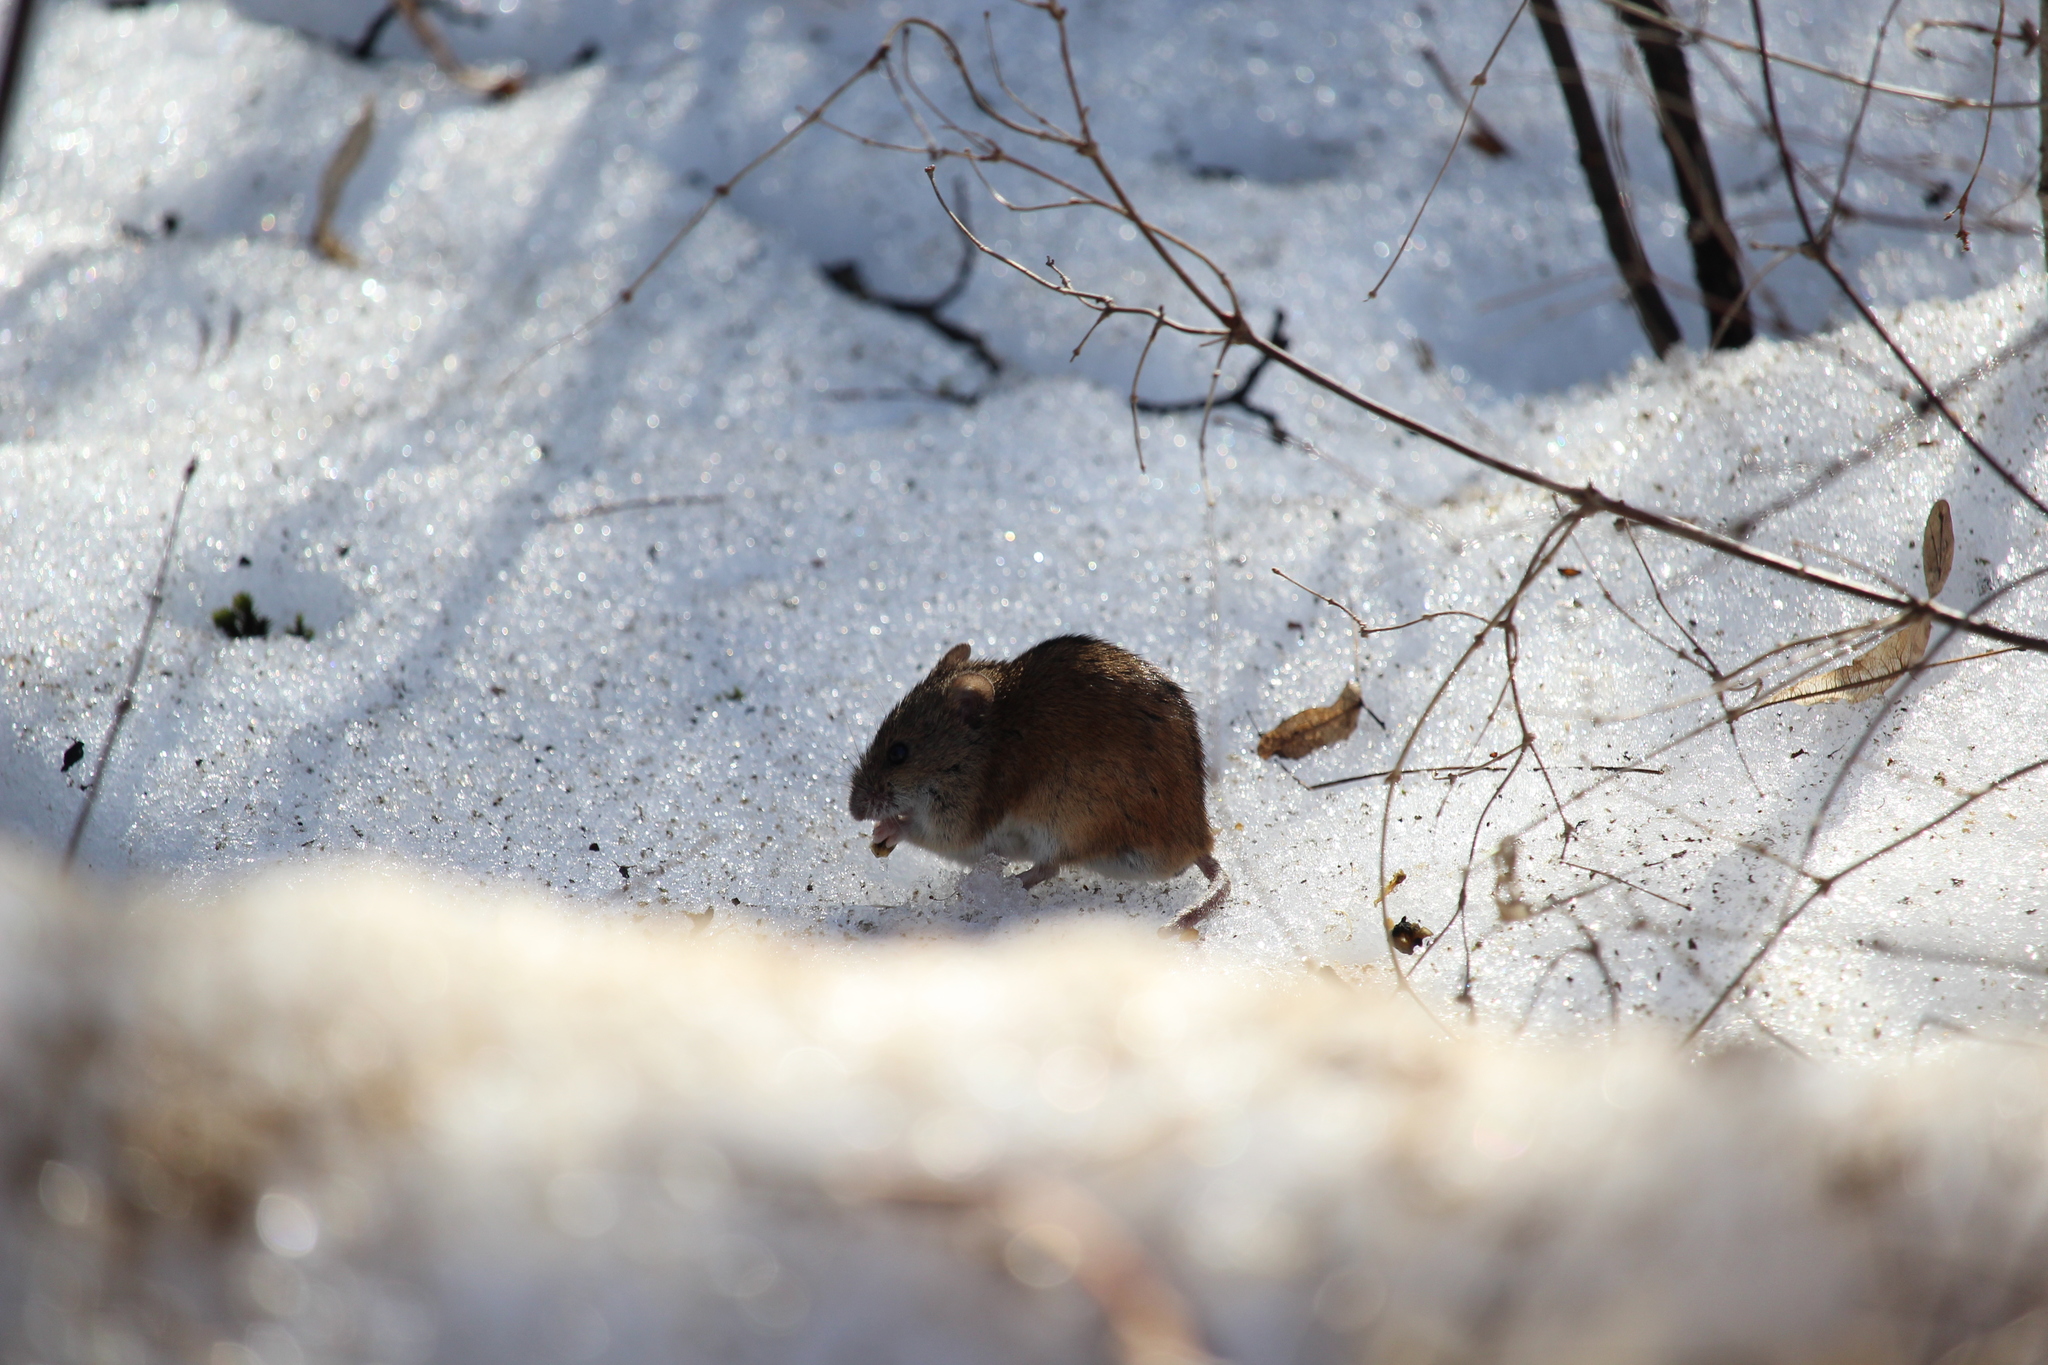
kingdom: Animalia
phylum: Chordata
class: Mammalia
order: Rodentia
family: Muridae
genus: Apodemus
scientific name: Apodemus agrarius
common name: Striped field mouse
